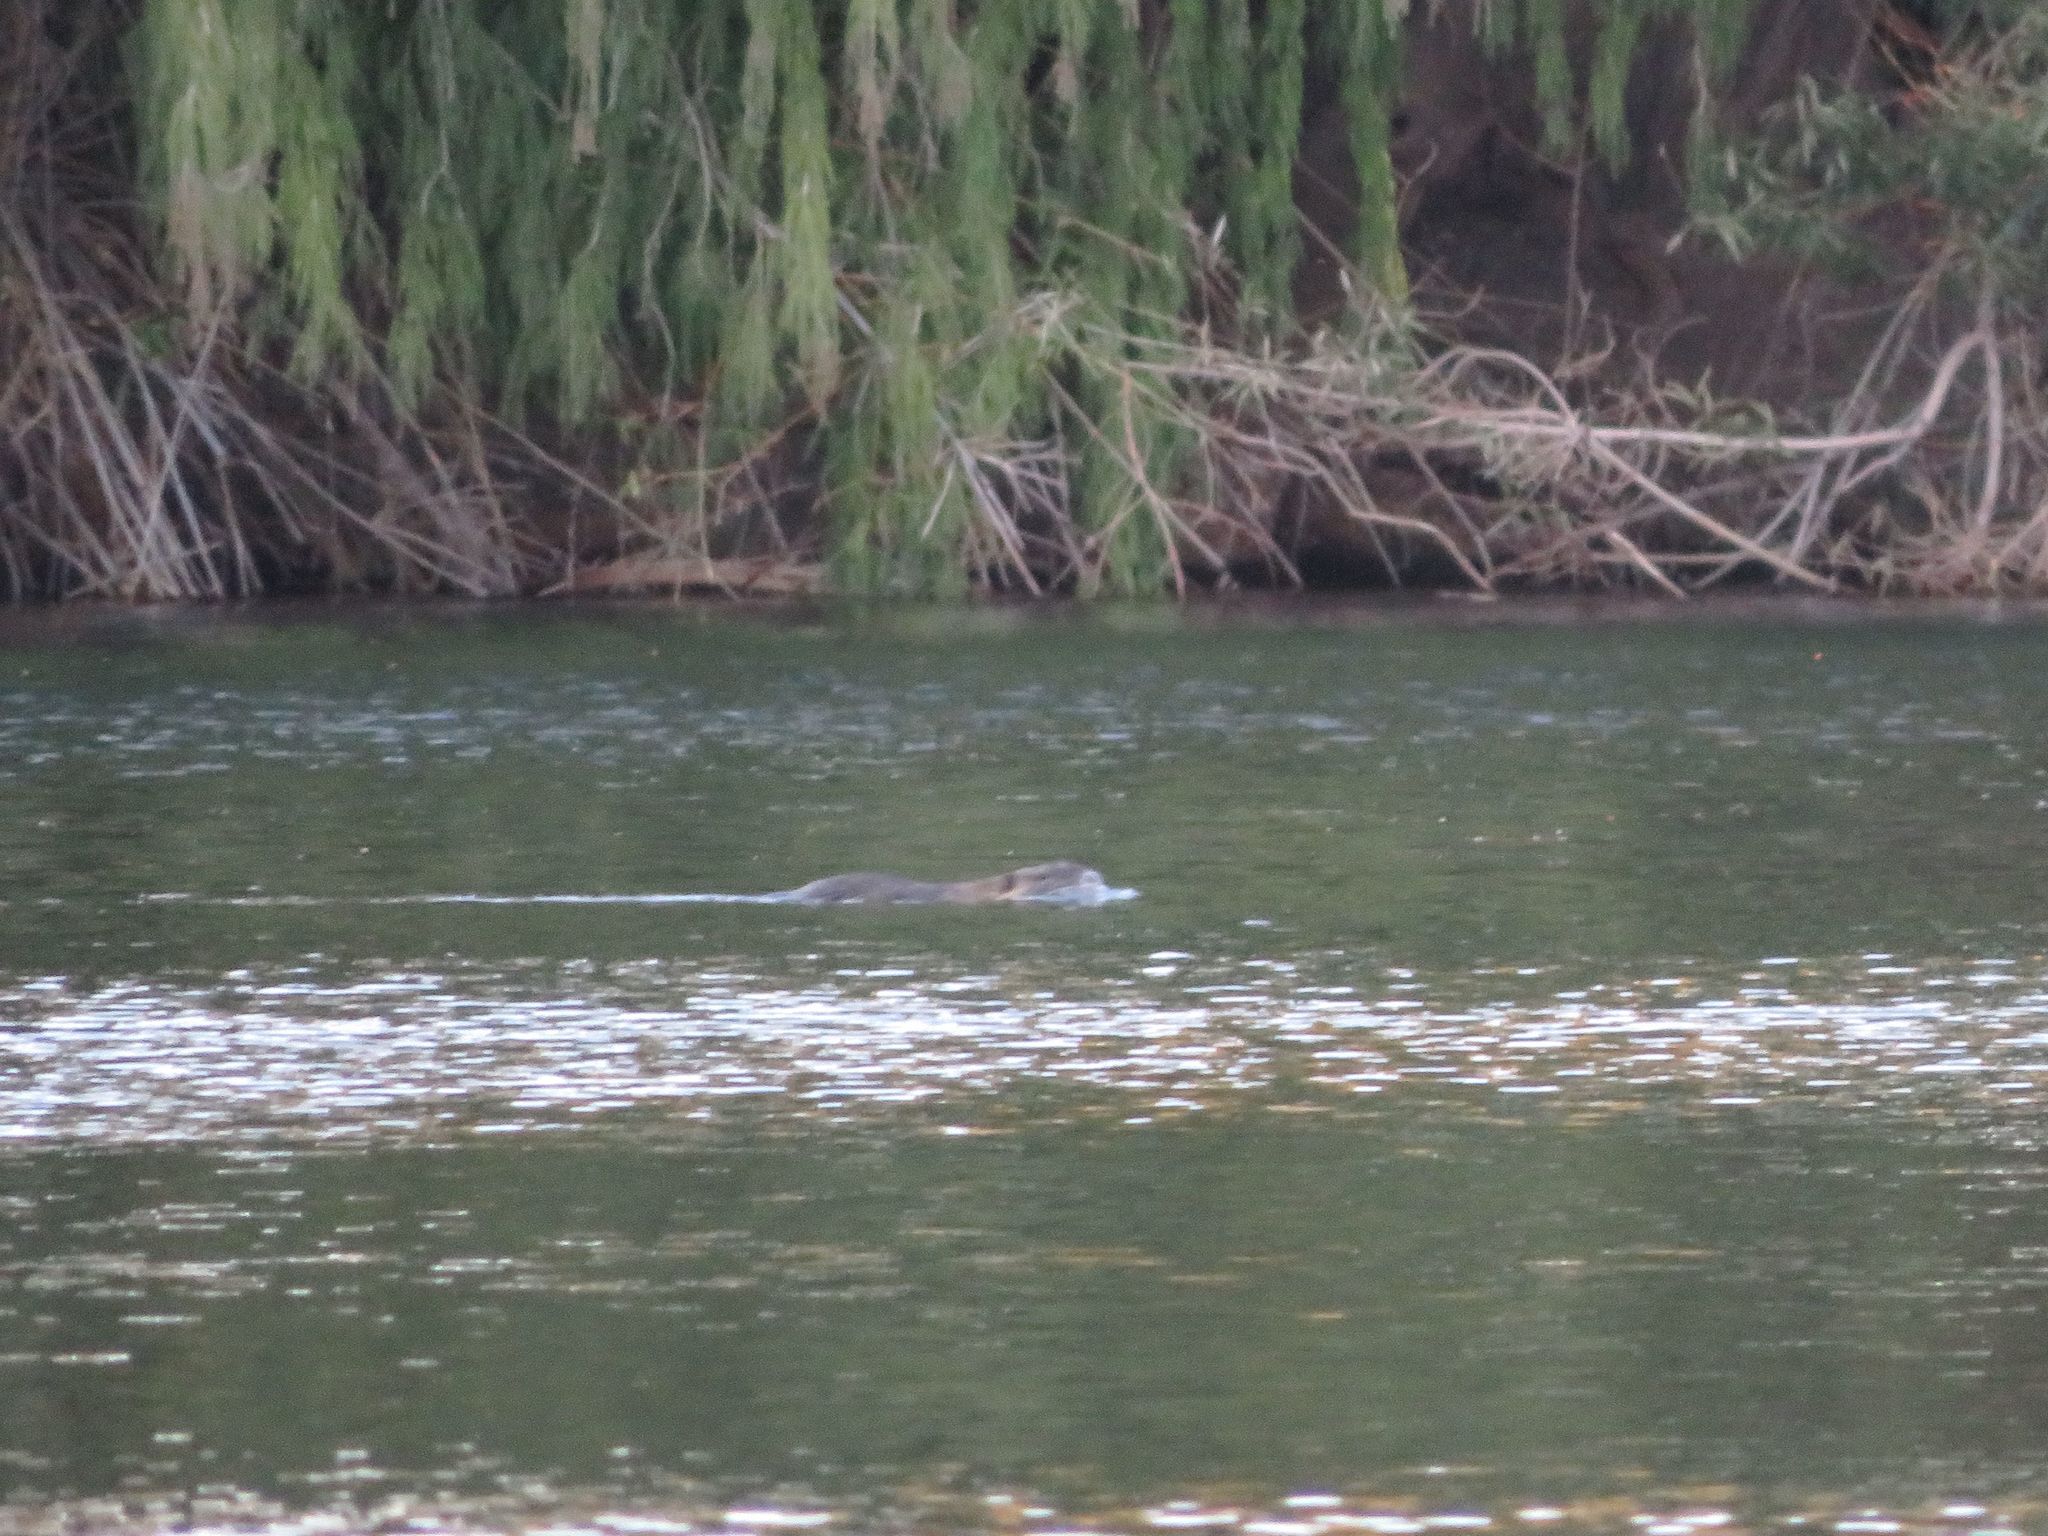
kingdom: Animalia
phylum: Chordata
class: Mammalia
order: Rodentia
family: Myocastoridae
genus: Myocastor
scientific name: Myocastor coypus
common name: Coypu
